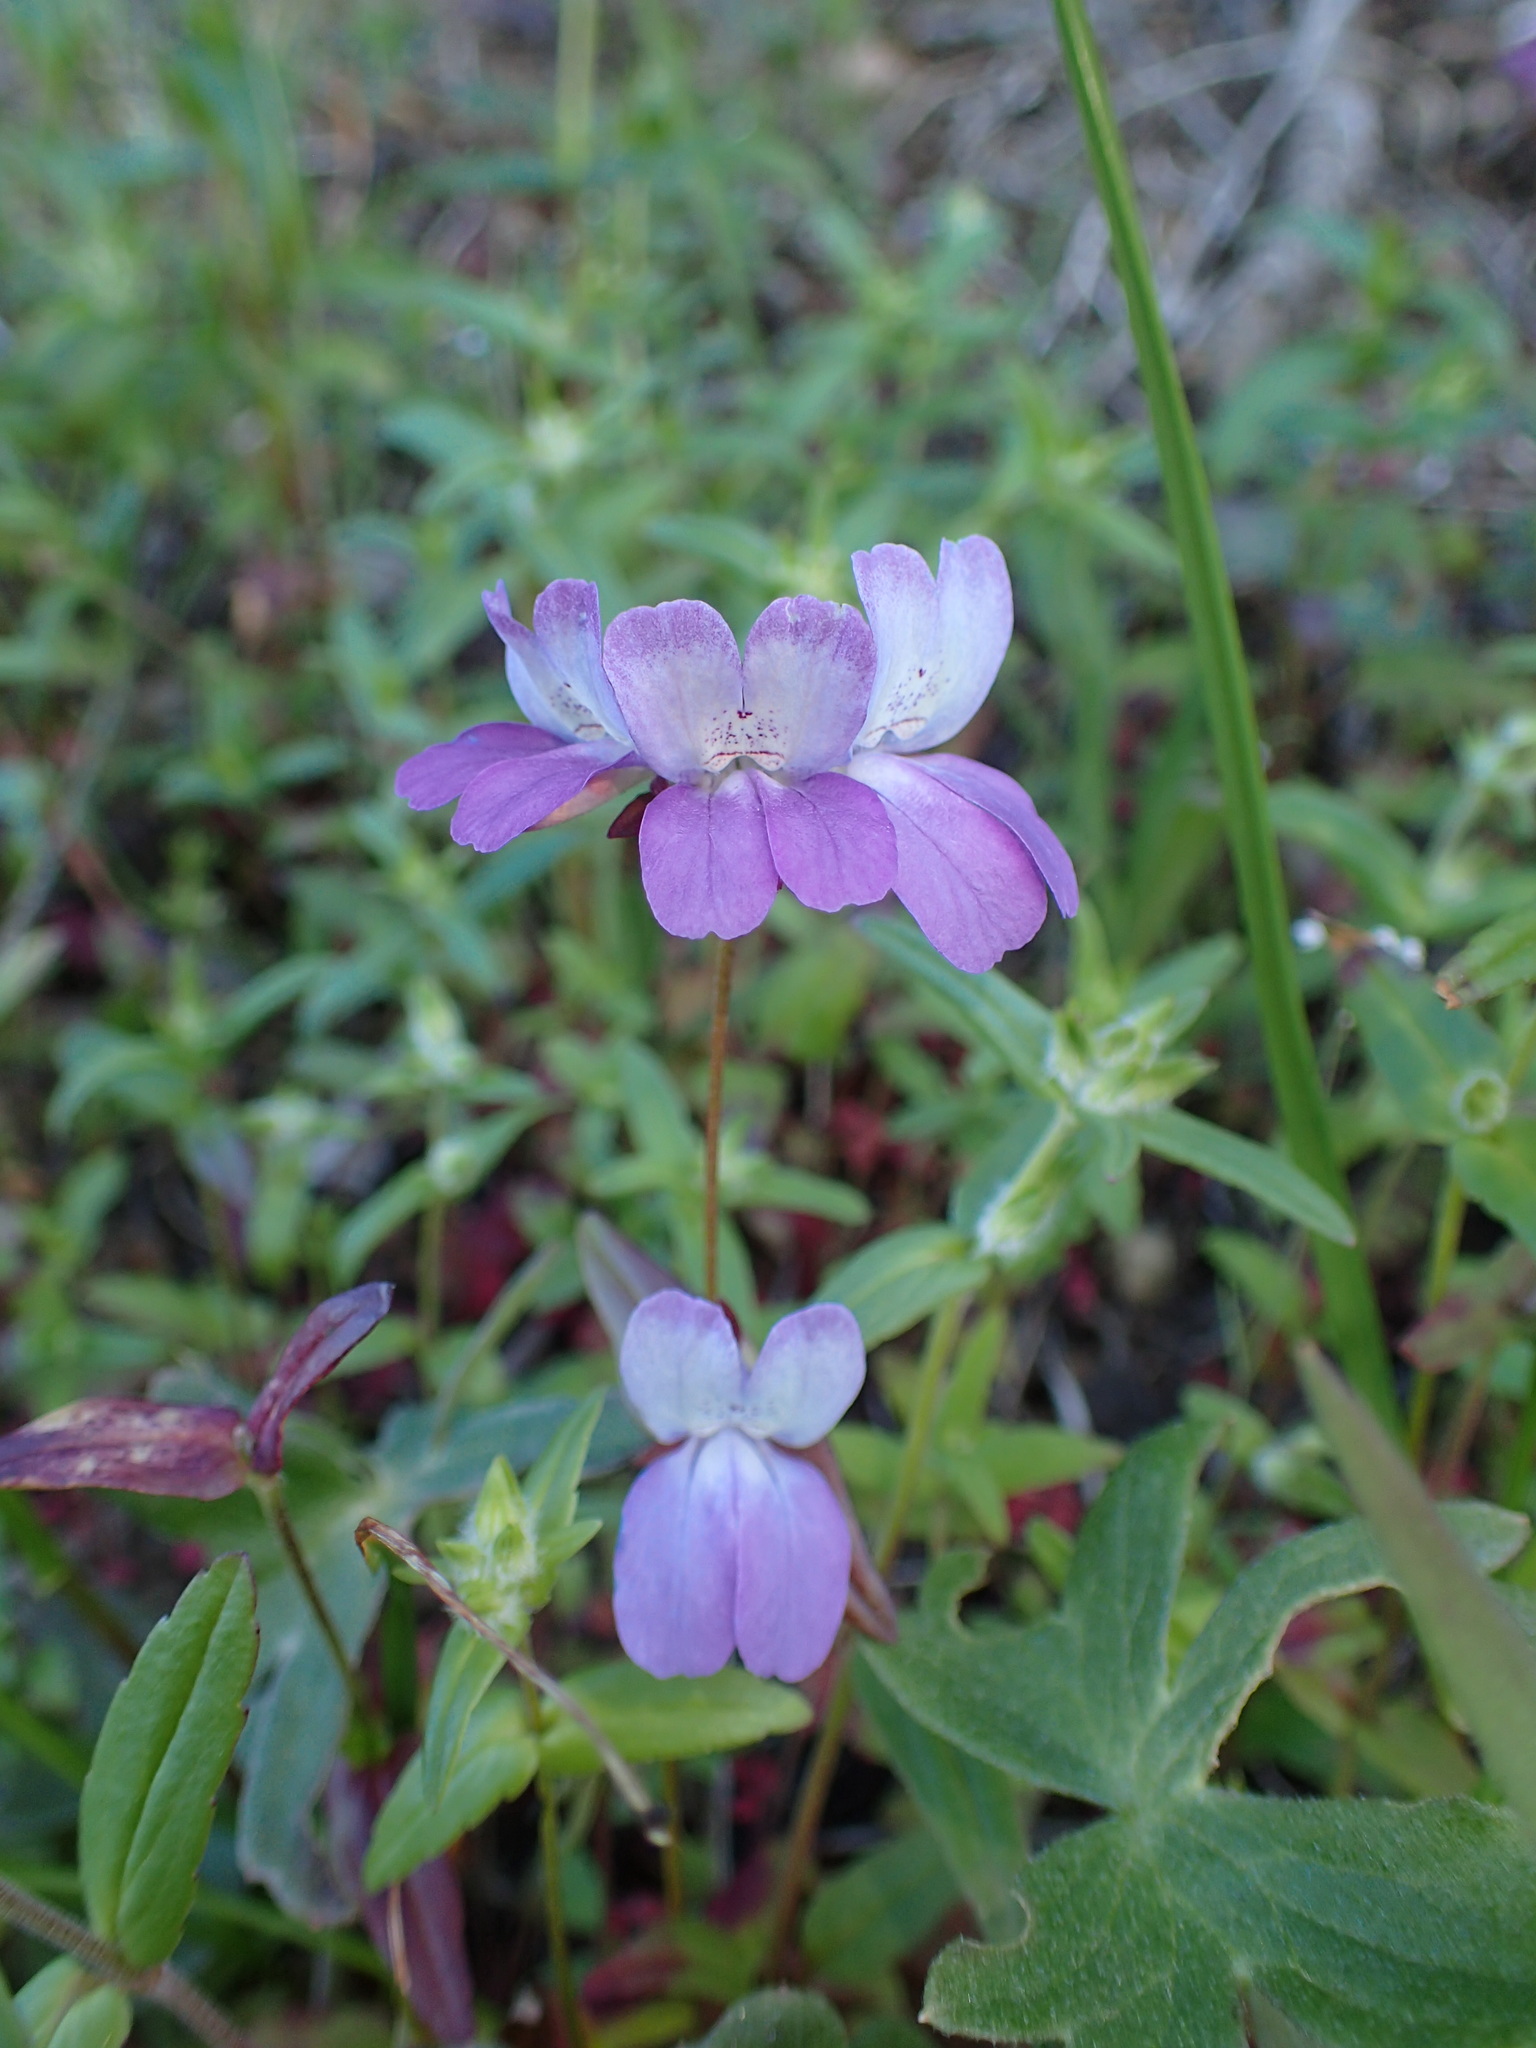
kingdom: Plantae
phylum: Tracheophyta
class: Magnoliopsida
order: Lamiales
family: Plantaginaceae
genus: Collinsia
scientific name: Collinsia heterophylla
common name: Chinese-houses
